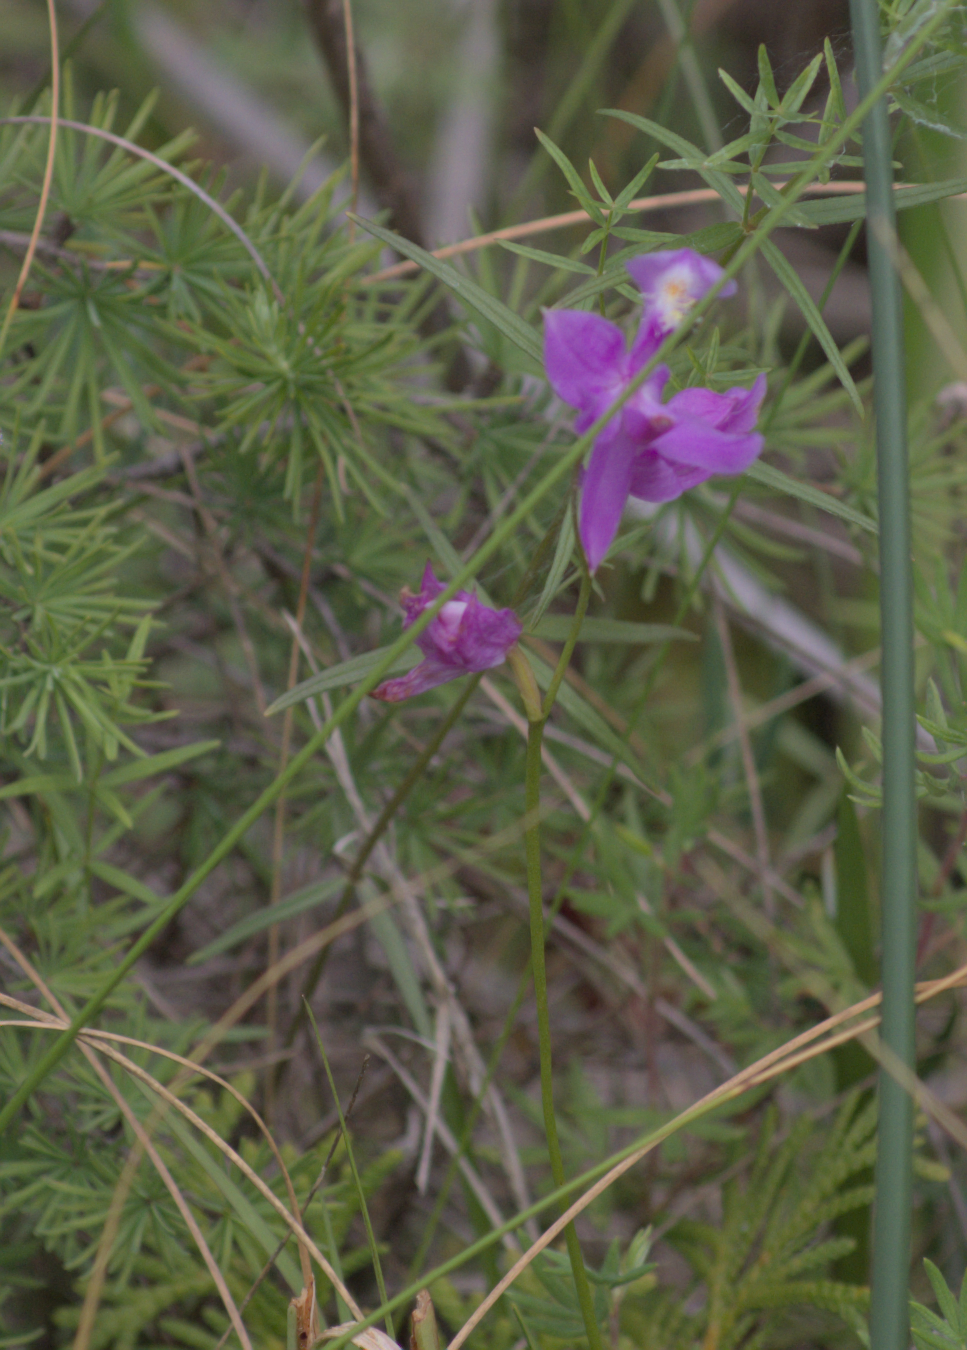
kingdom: Plantae
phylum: Tracheophyta
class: Liliopsida
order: Asparagales
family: Orchidaceae
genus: Calopogon
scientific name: Calopogon tuberosus
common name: Grass-pink
